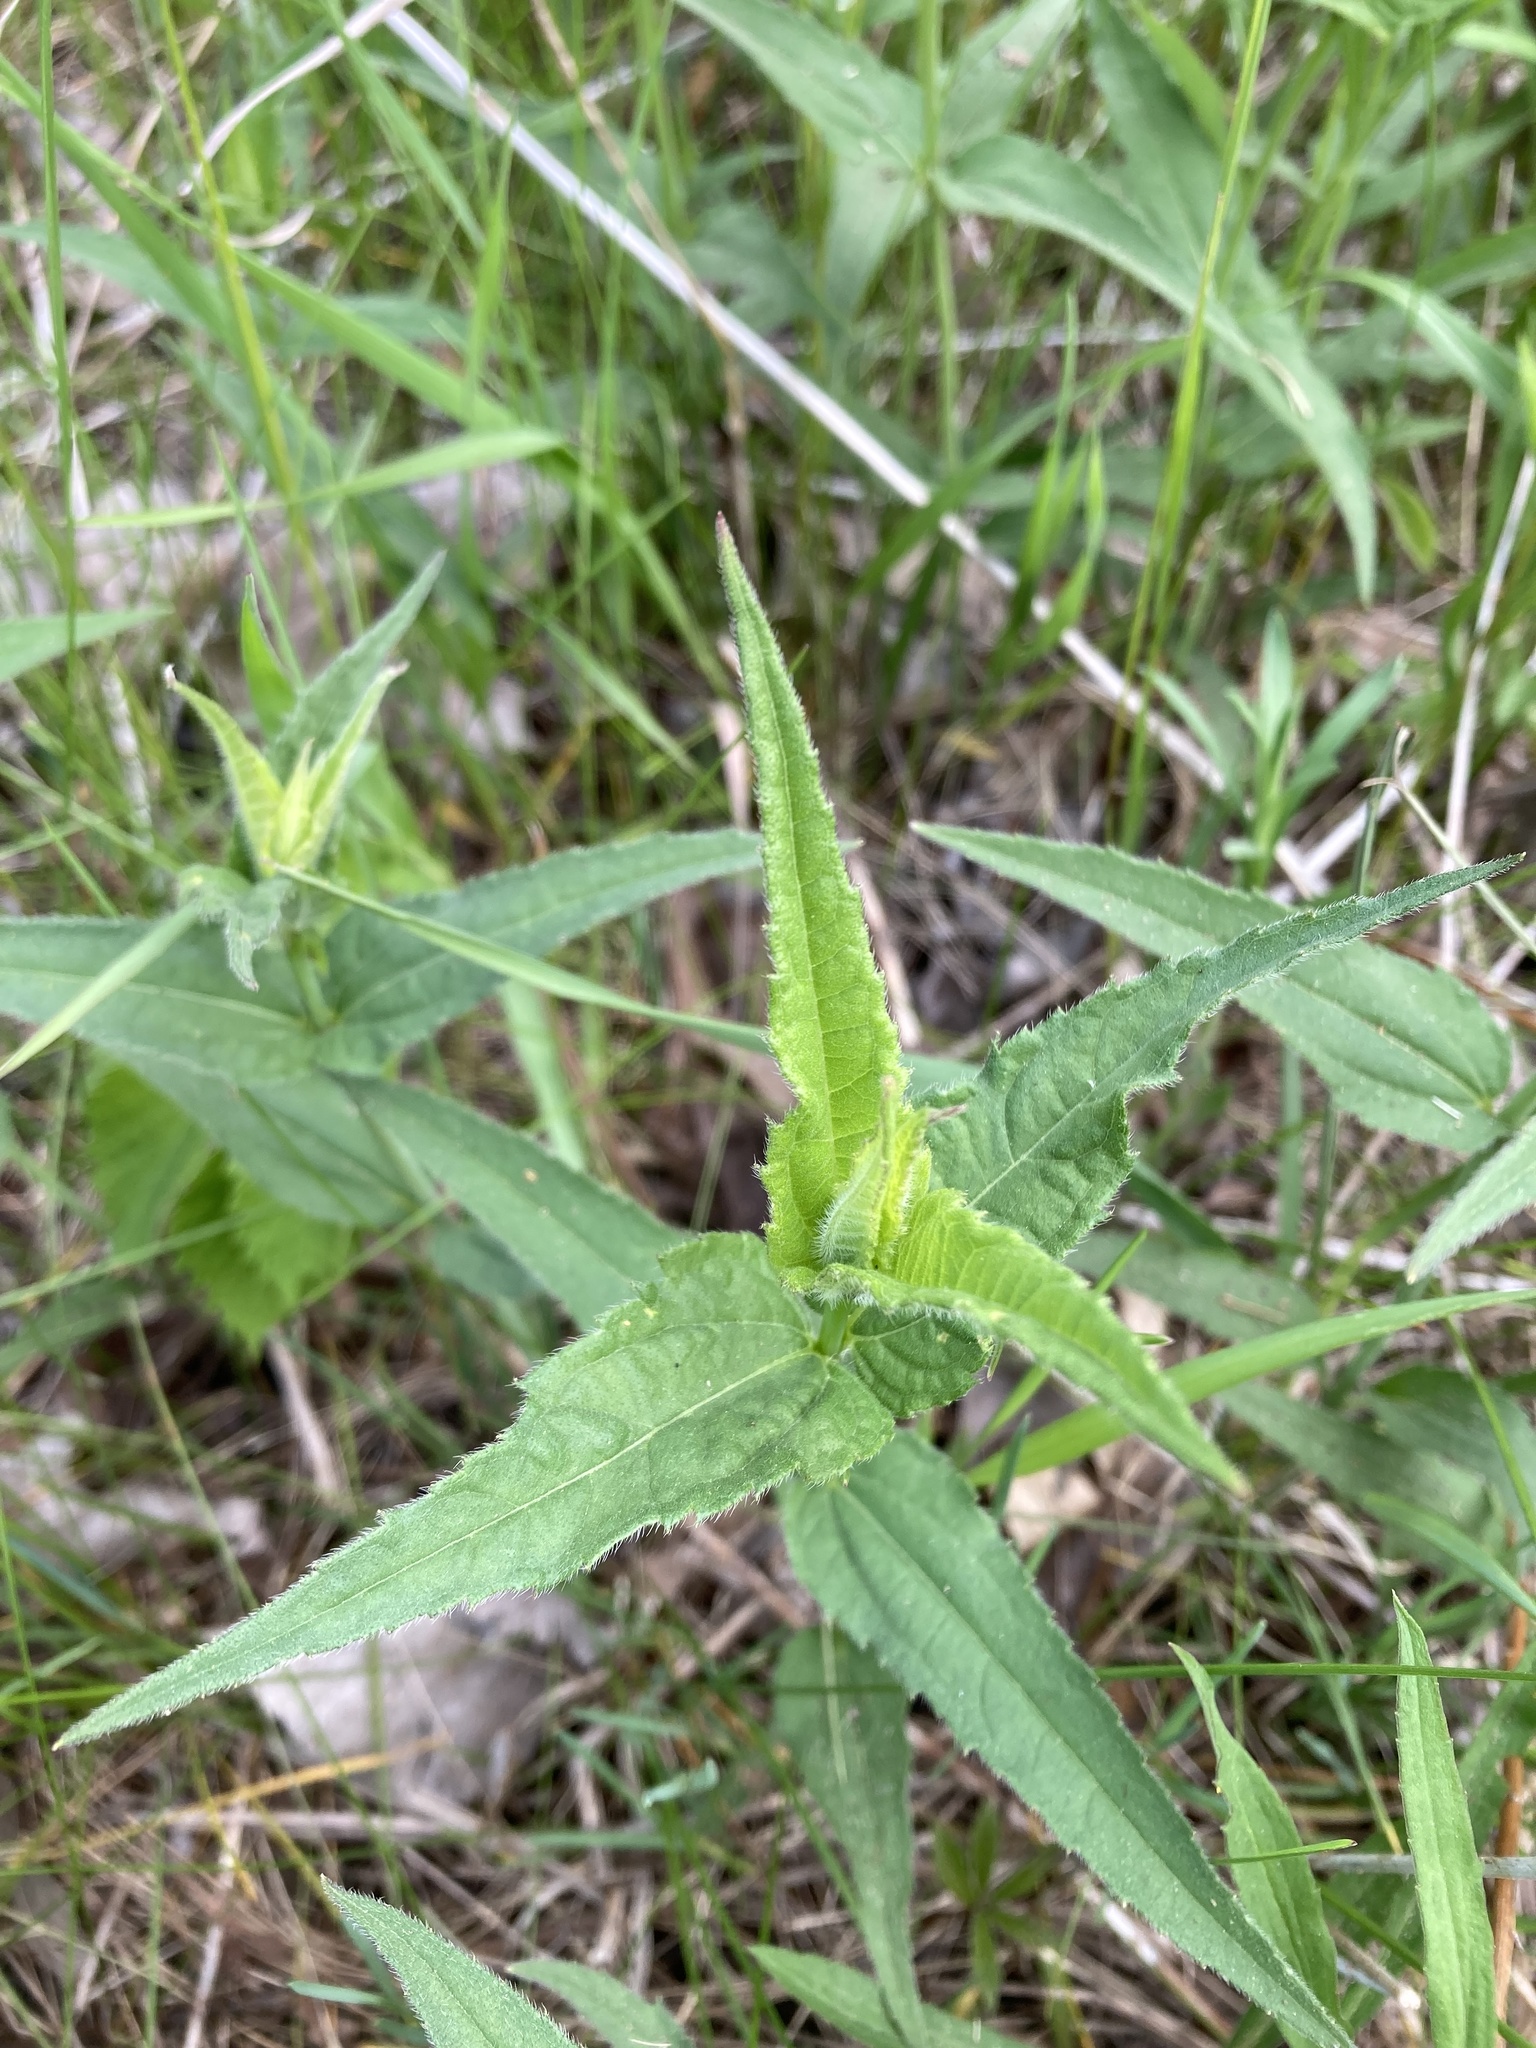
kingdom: Plantae
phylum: Tracheophyta
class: Magnoliopsida
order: Asterales
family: Asteraceae
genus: Helianthus
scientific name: Helianthus divaricatus
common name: Divergent sunflower
